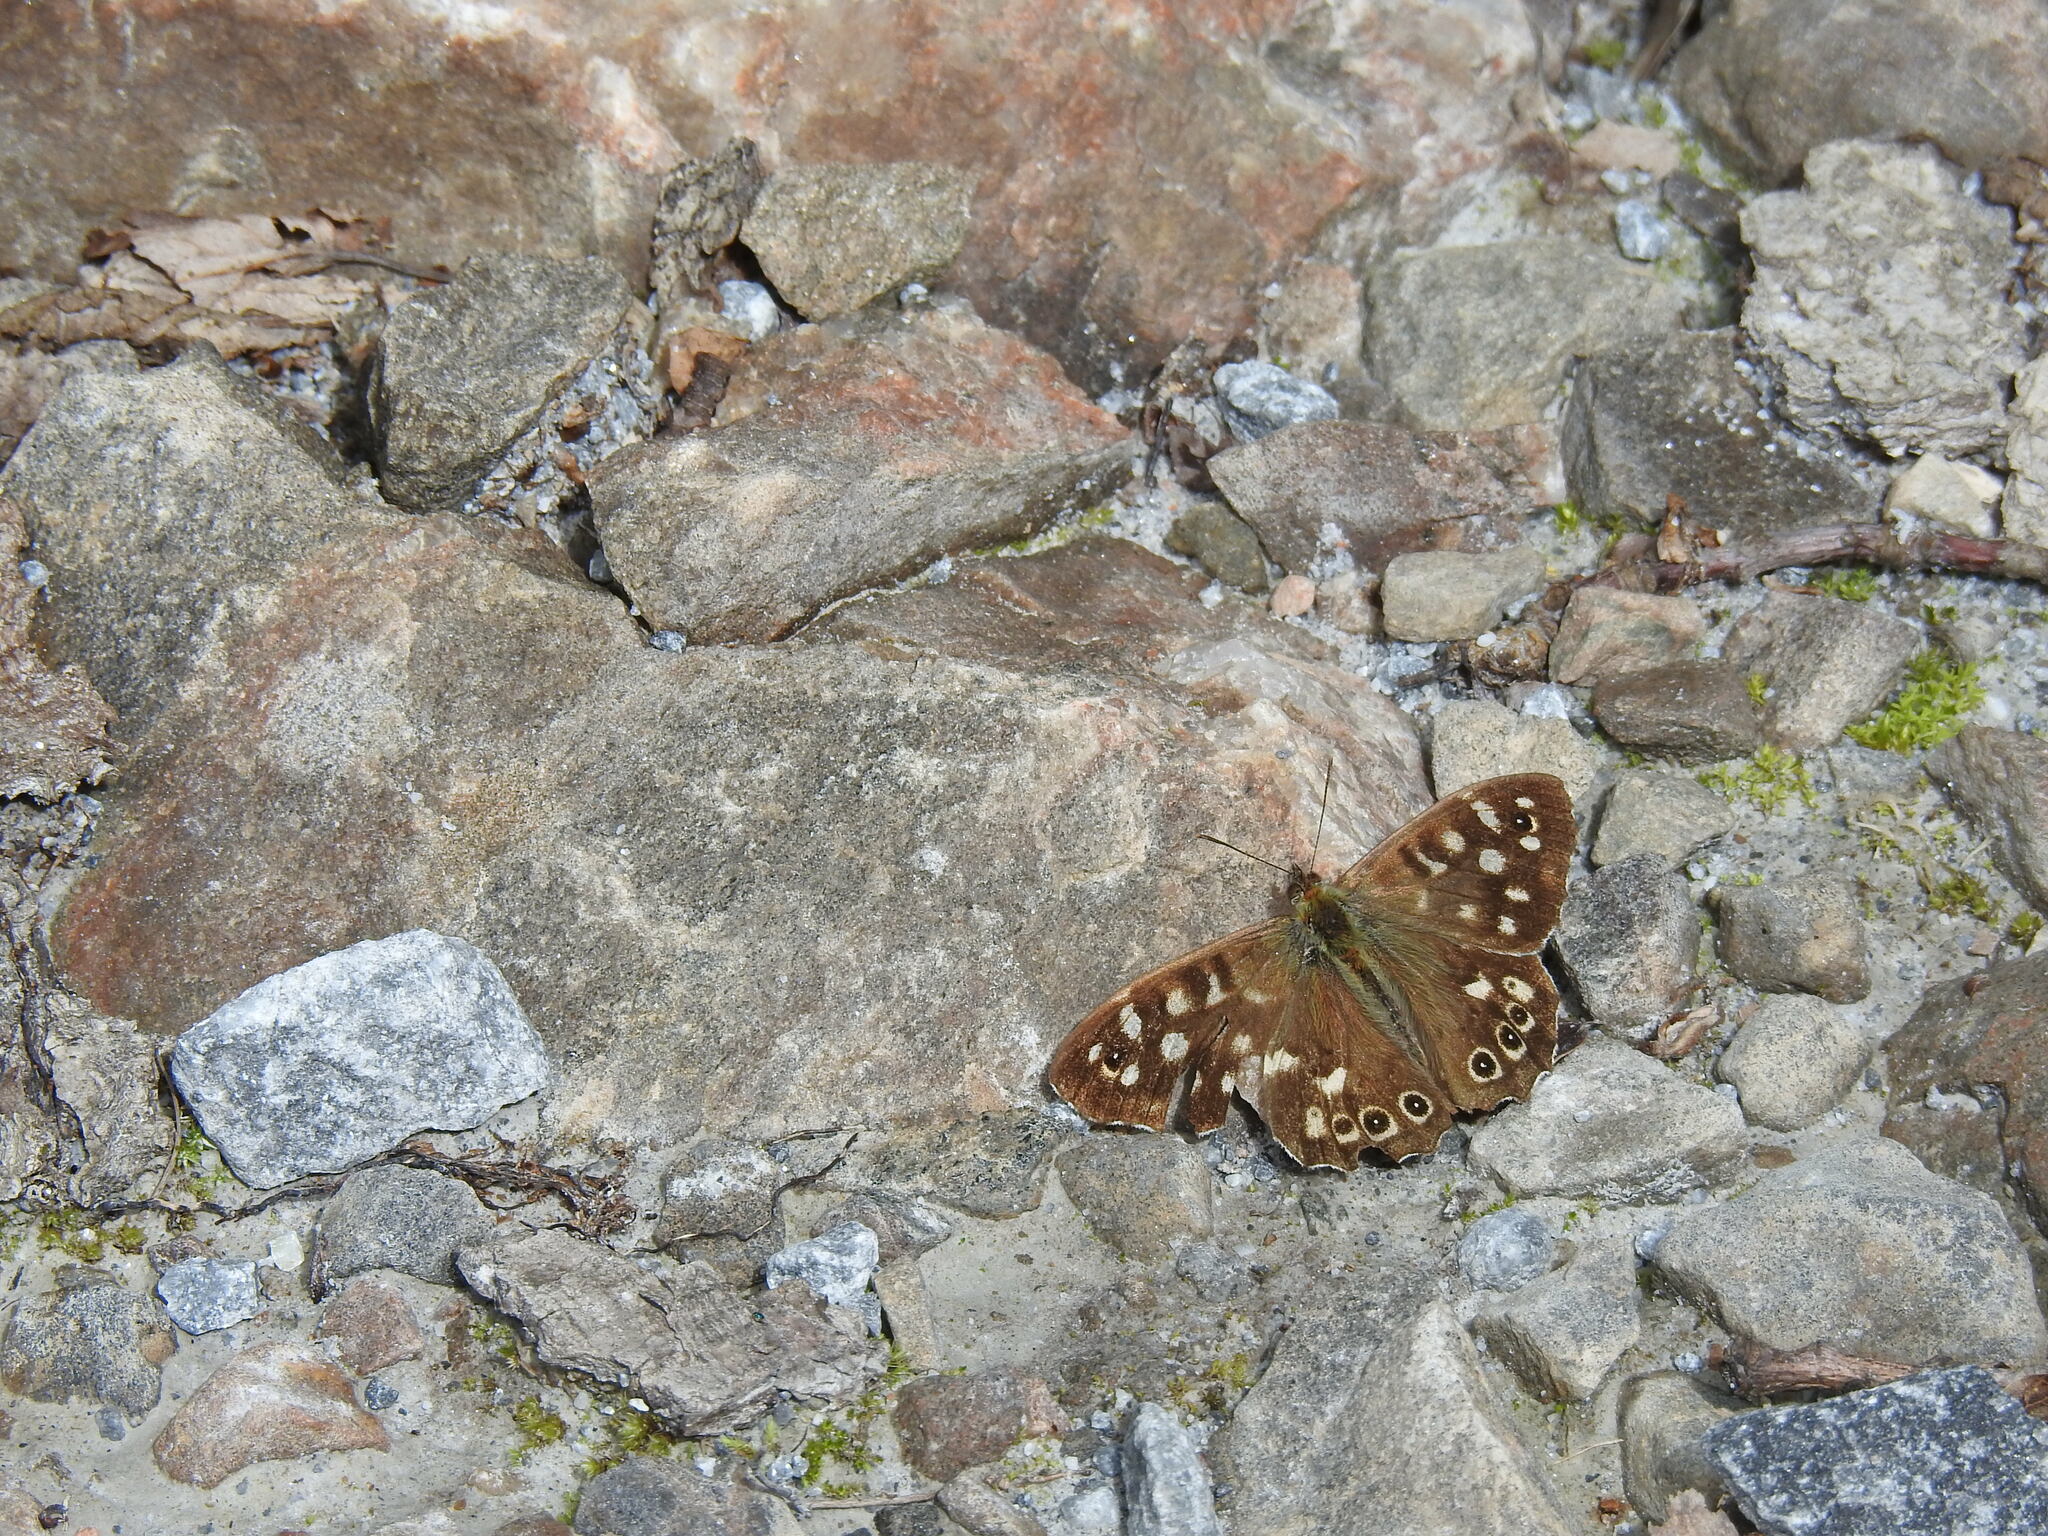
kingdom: Animalia
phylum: Arthropoda
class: Insecta
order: Lepidoptera
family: Nymphalidae
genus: Pararge
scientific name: Pararge aegeria
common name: Speckled wood
